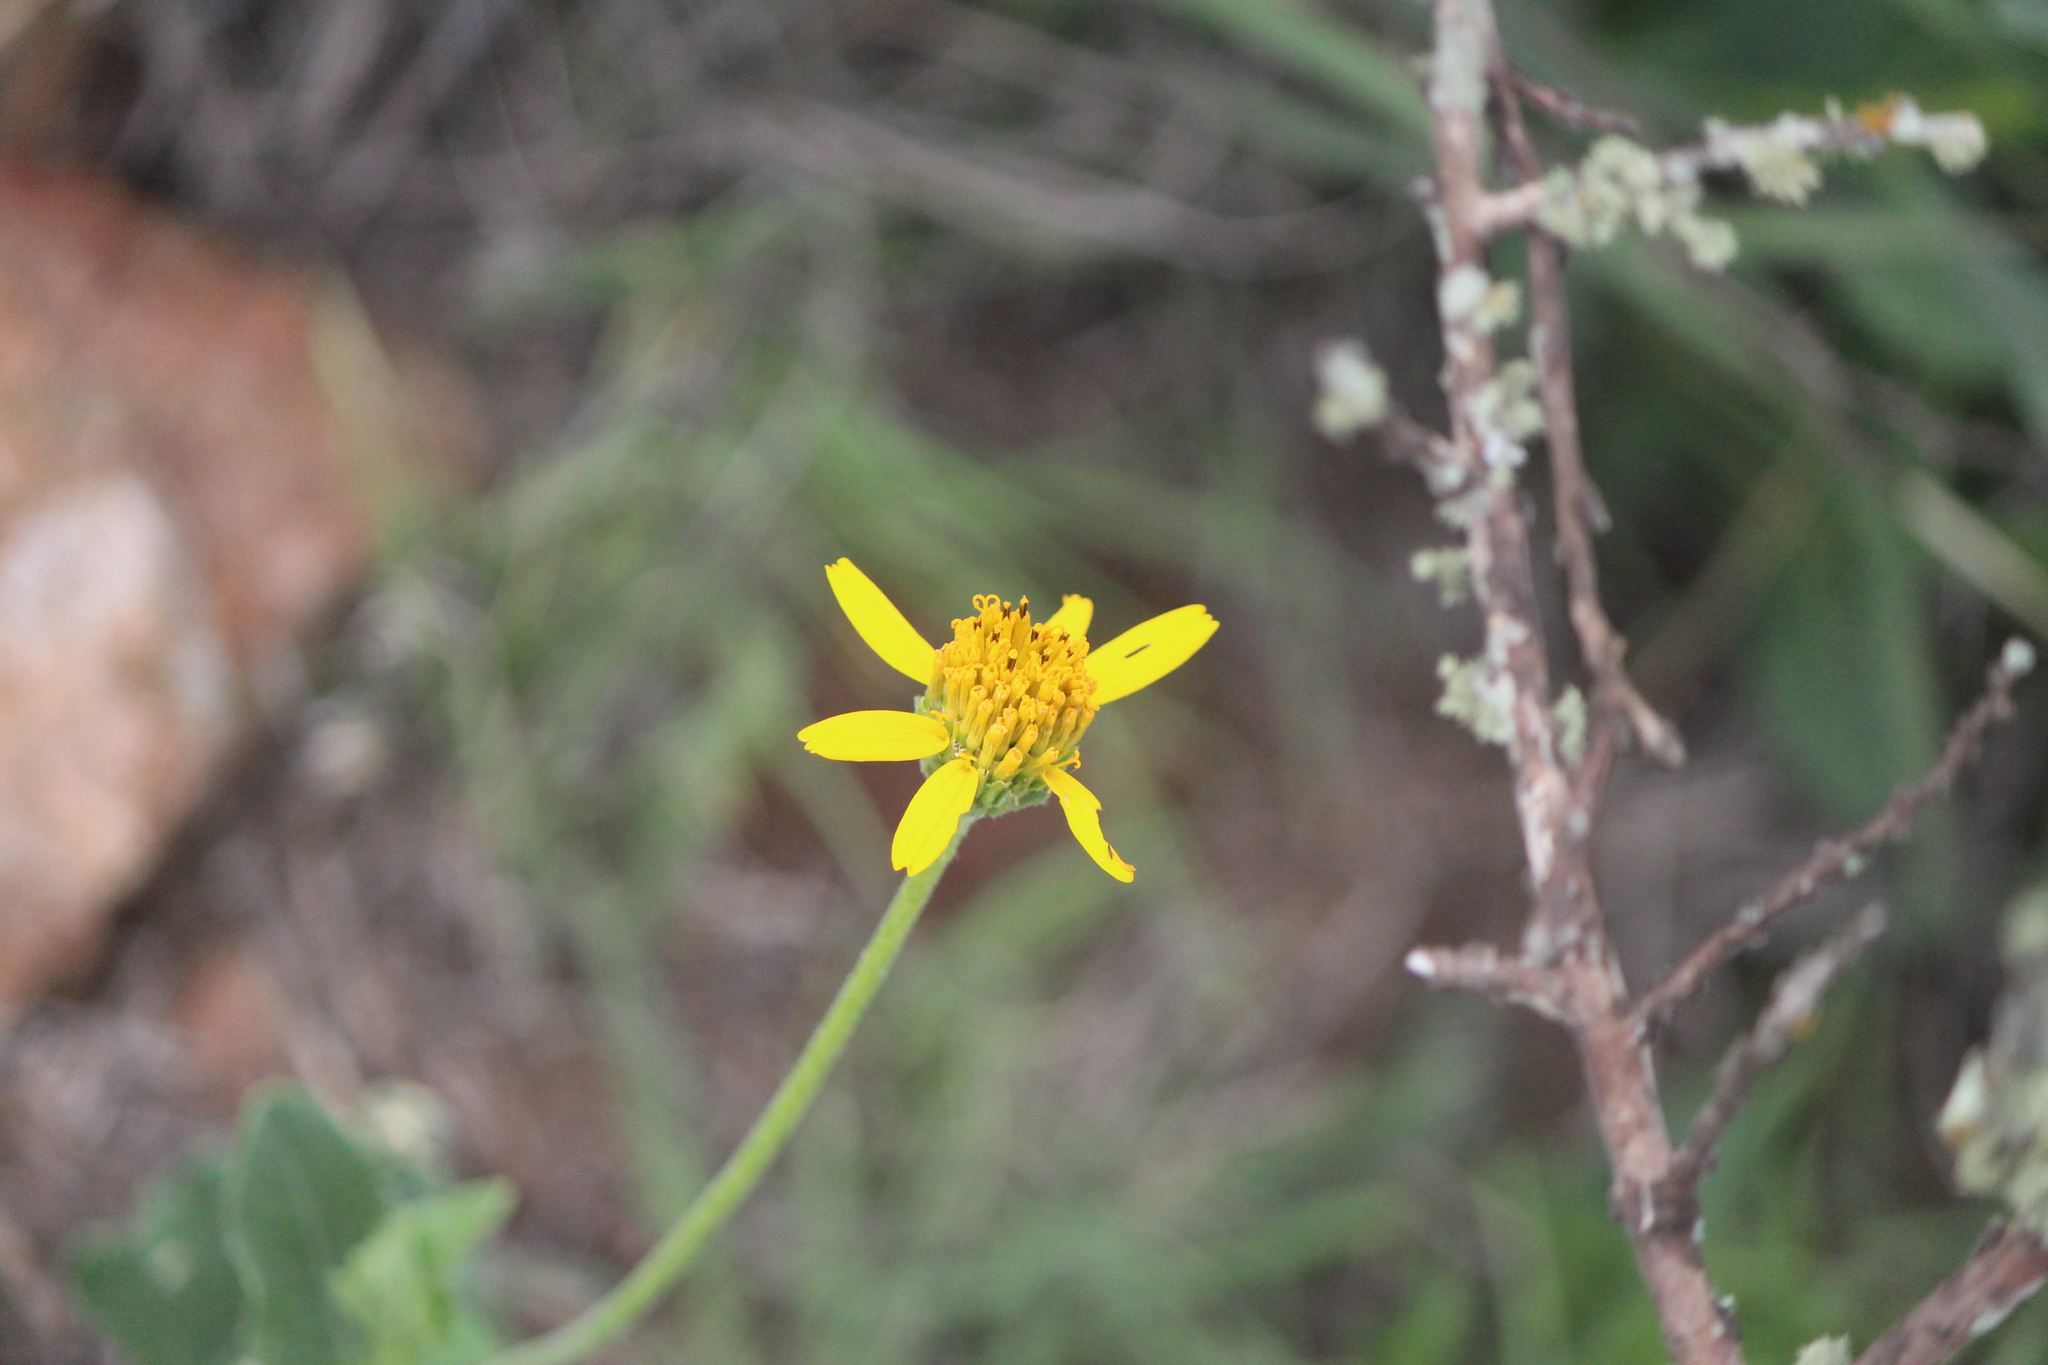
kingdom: Plantae
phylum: Tracheophyta
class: Magnoliopsida
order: Asterales
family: Asteraceae
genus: Verbesina
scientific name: Verbesina pedunculosa
